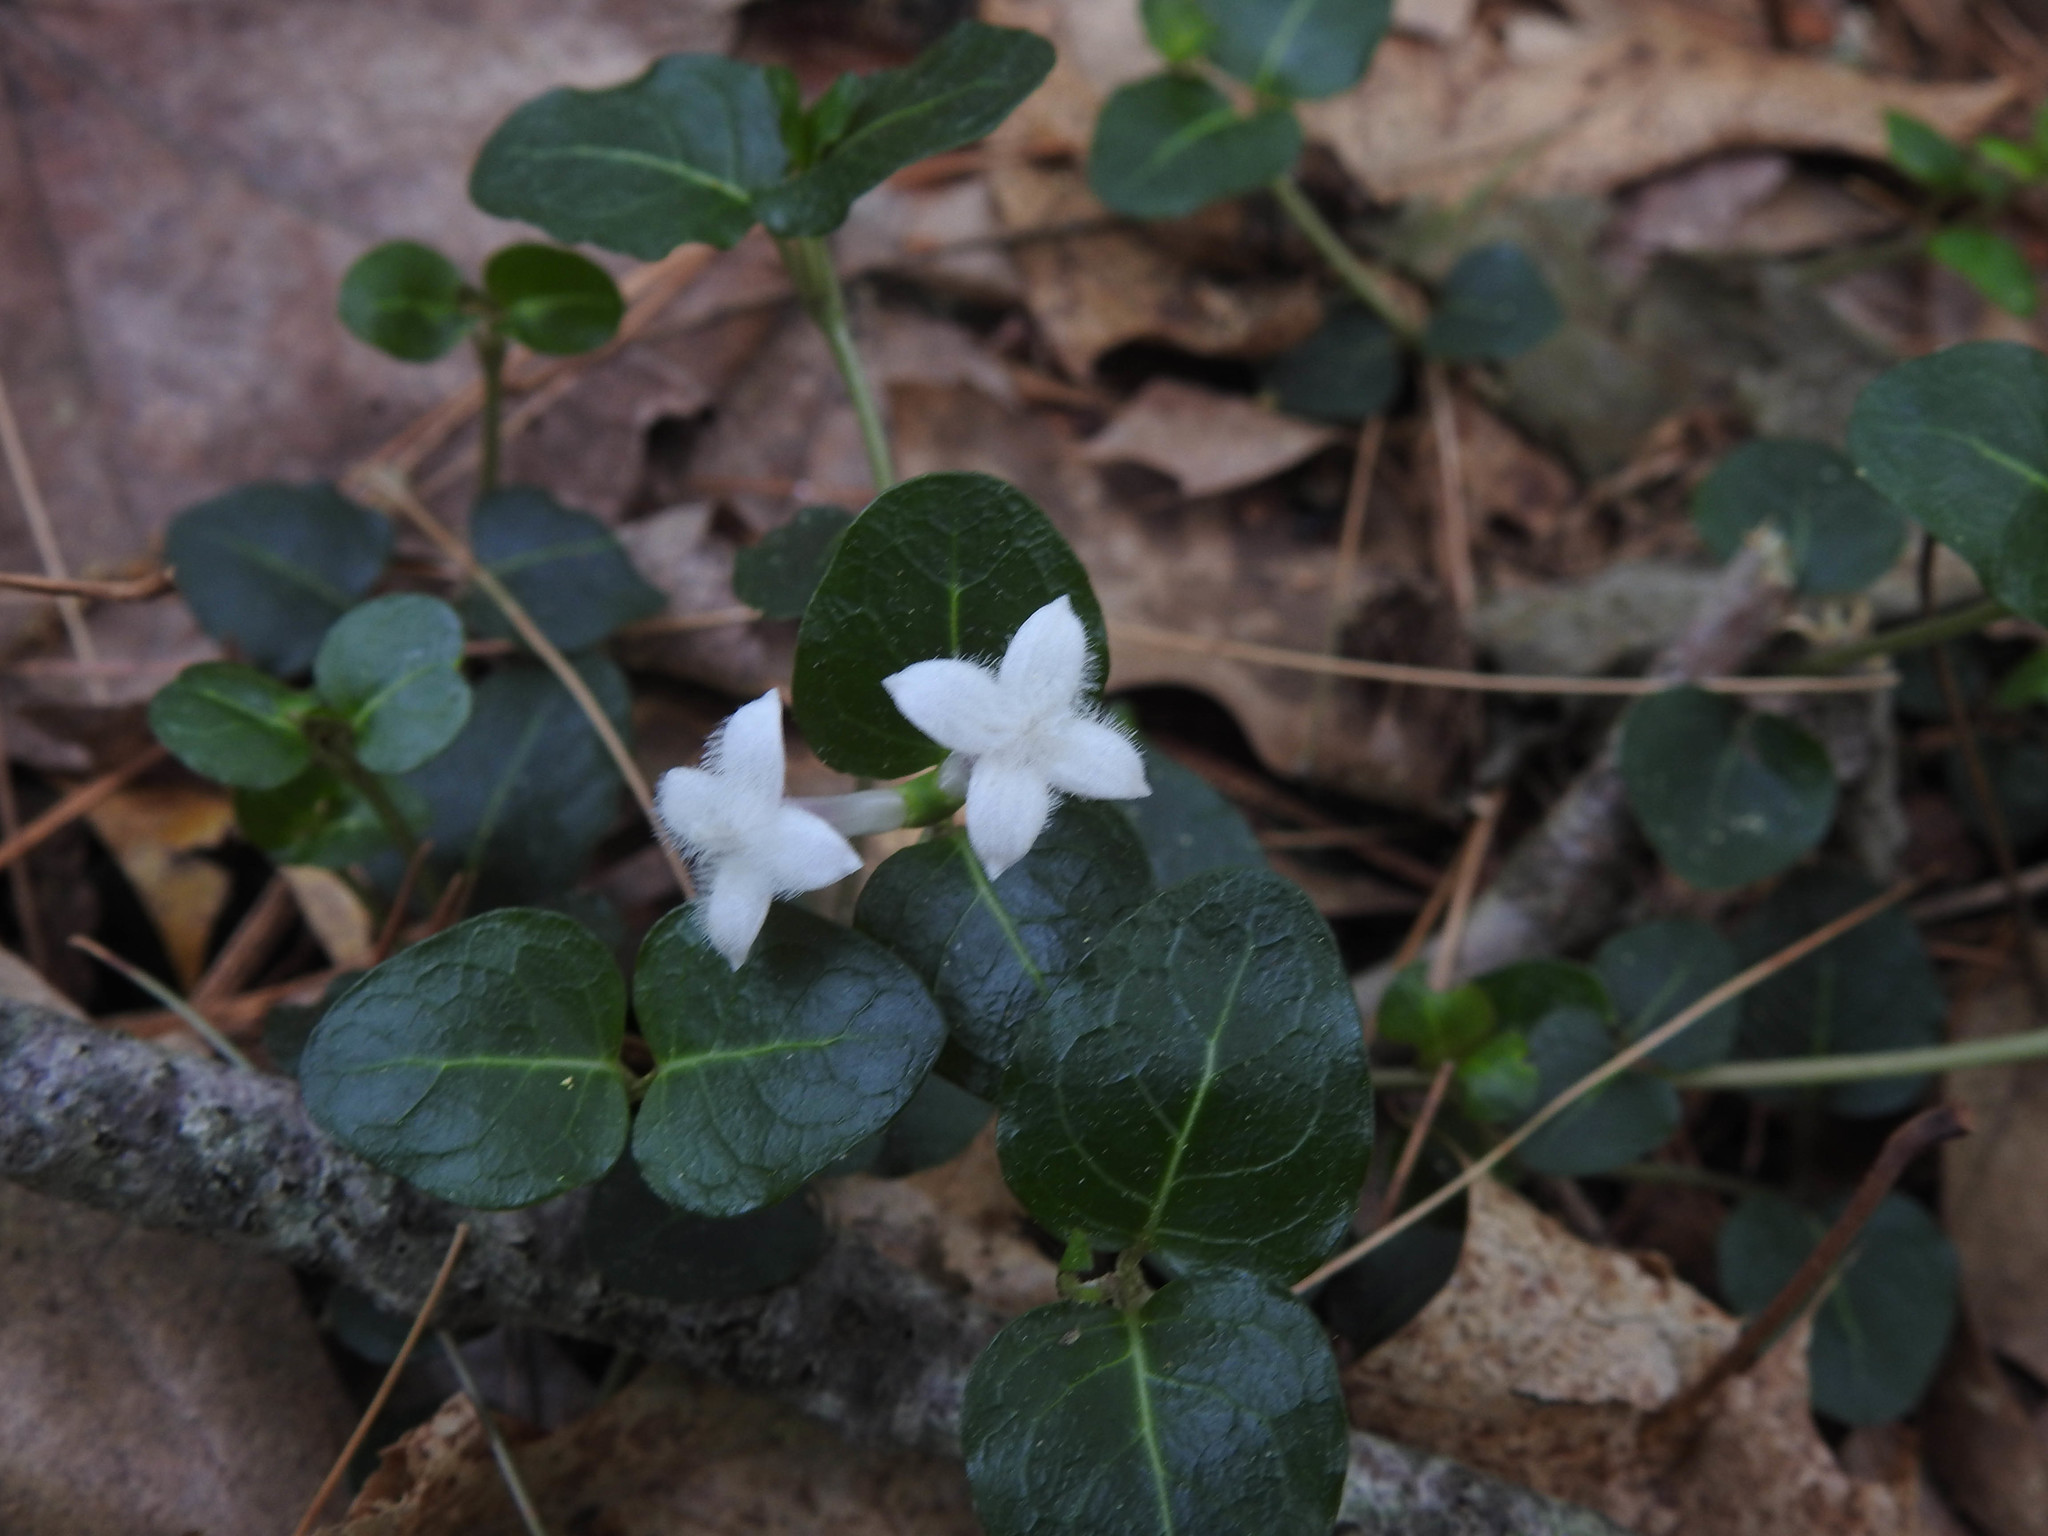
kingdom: Plantae
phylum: Tracheophyta
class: Magnoliopsida
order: Gentianales
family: Rubiaceae
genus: Mitchella
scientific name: Mitchella repens
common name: Partridge-berry
